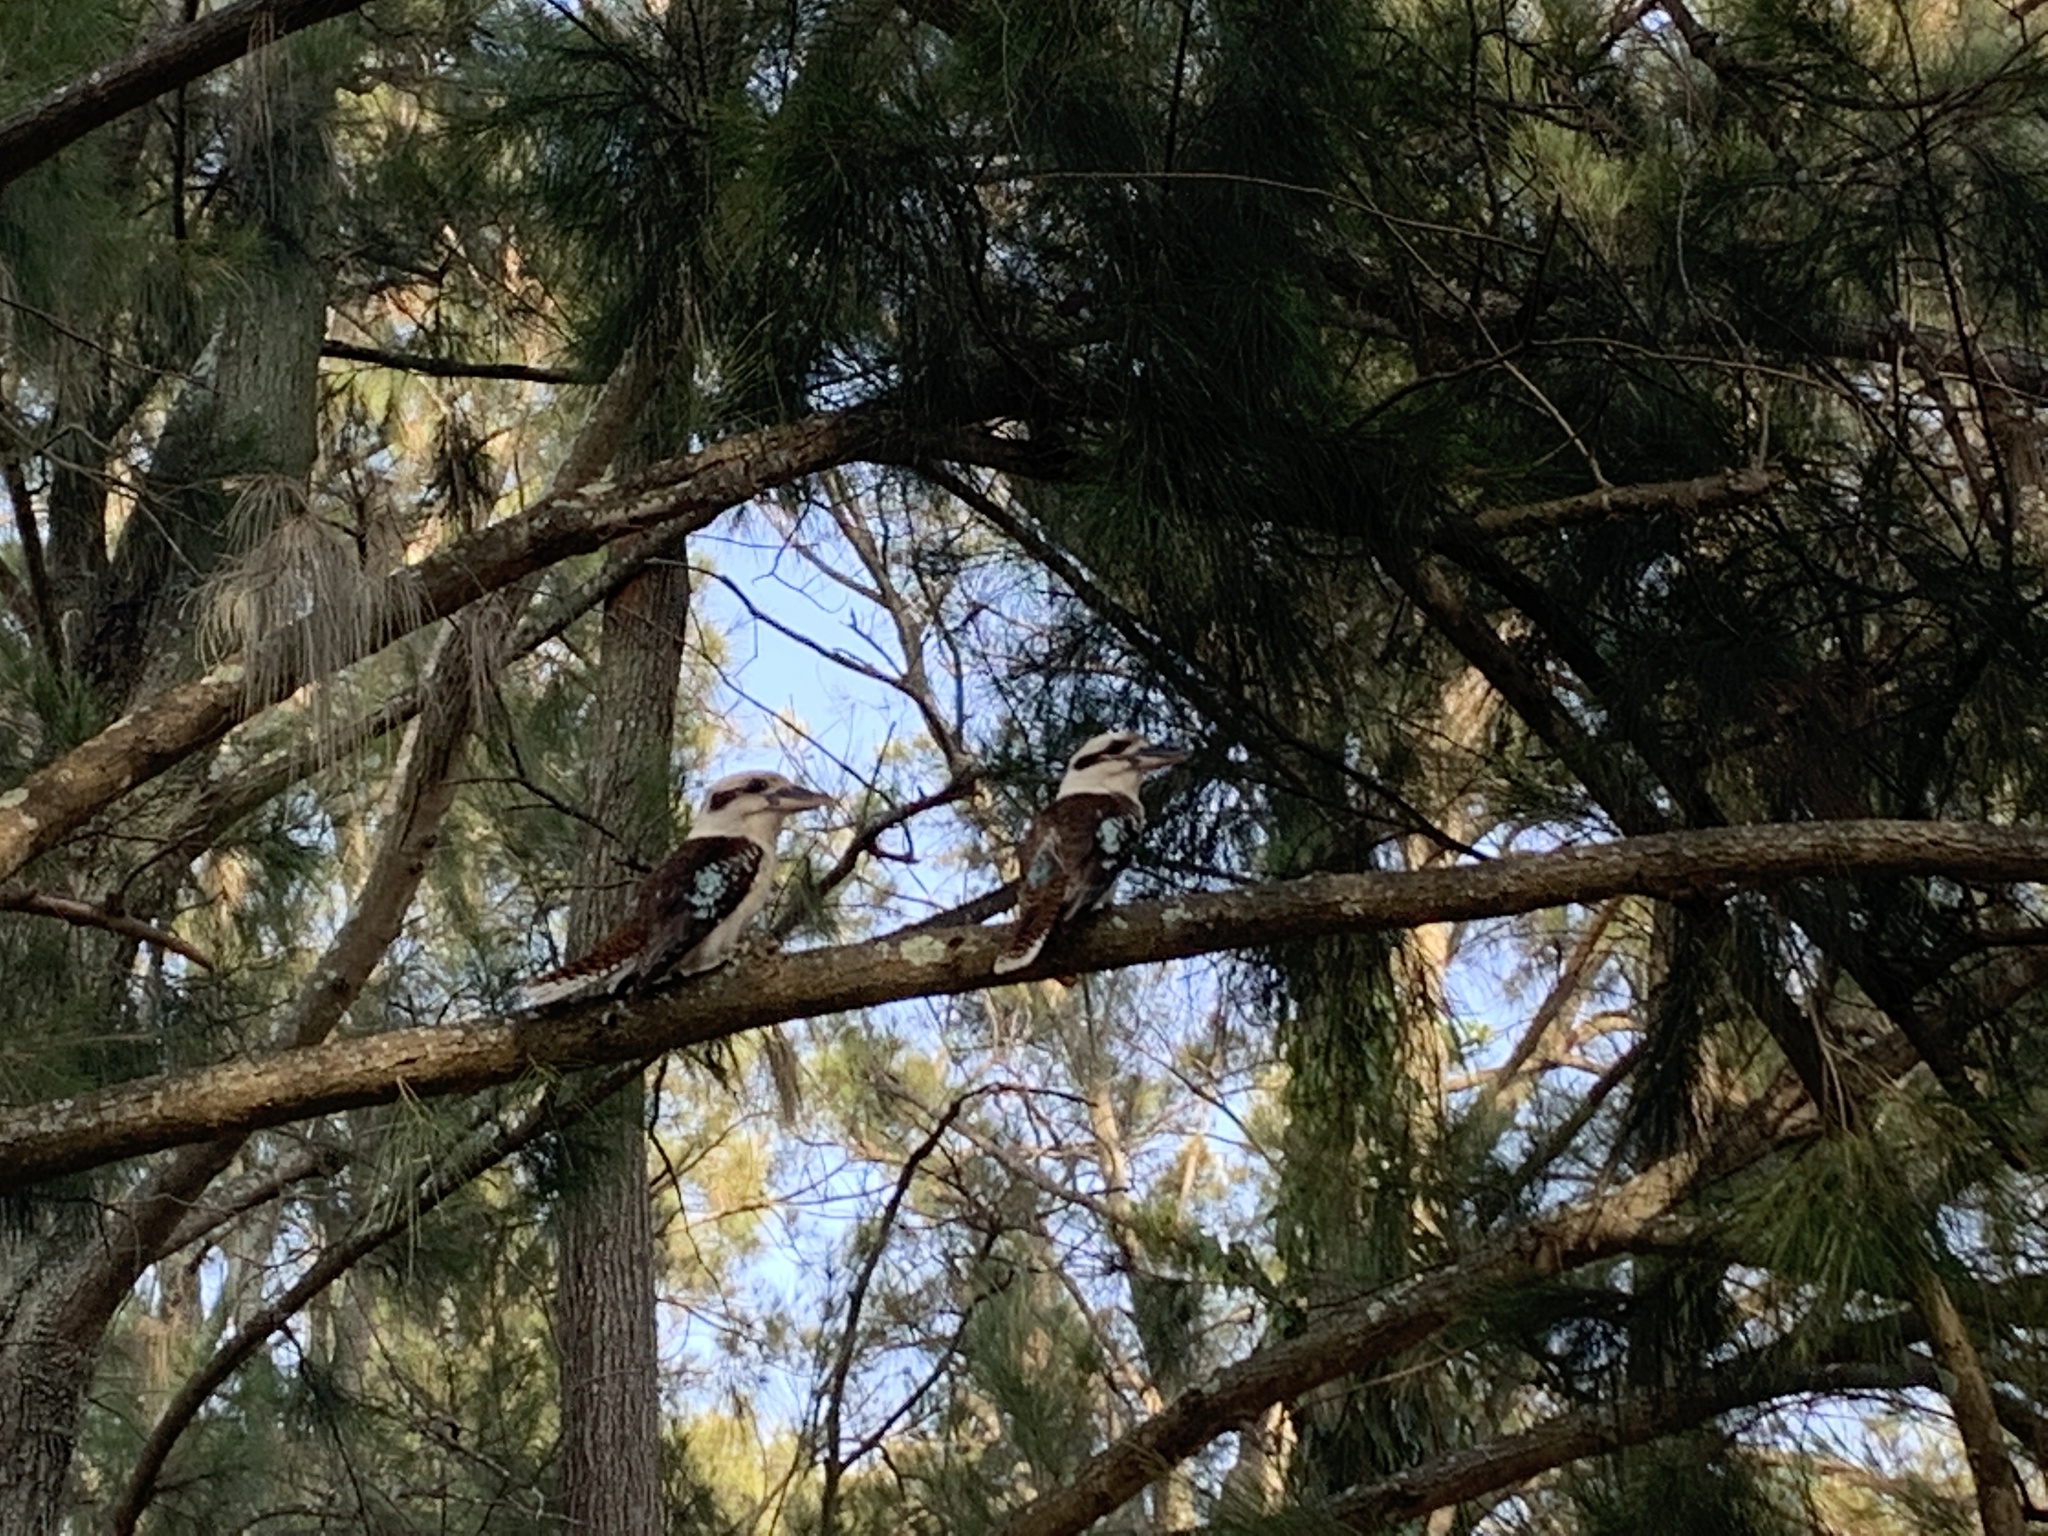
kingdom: Animalia
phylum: Chordata
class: Aves
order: Coraciiformes
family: Alcedinidae
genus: Dacelo
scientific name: Dacelo novaeguineae
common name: Laughing kookaburra
